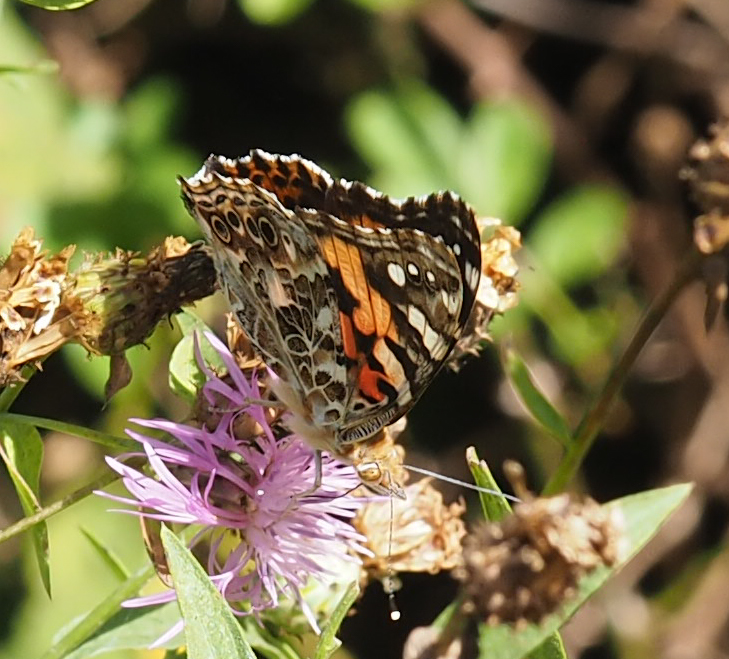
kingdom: Animalia
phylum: Arthropoda
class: Insecta
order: Lepidoptera
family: Nymphalidae
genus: Vanessa
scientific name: Vanessa cardui
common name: Painted lady
